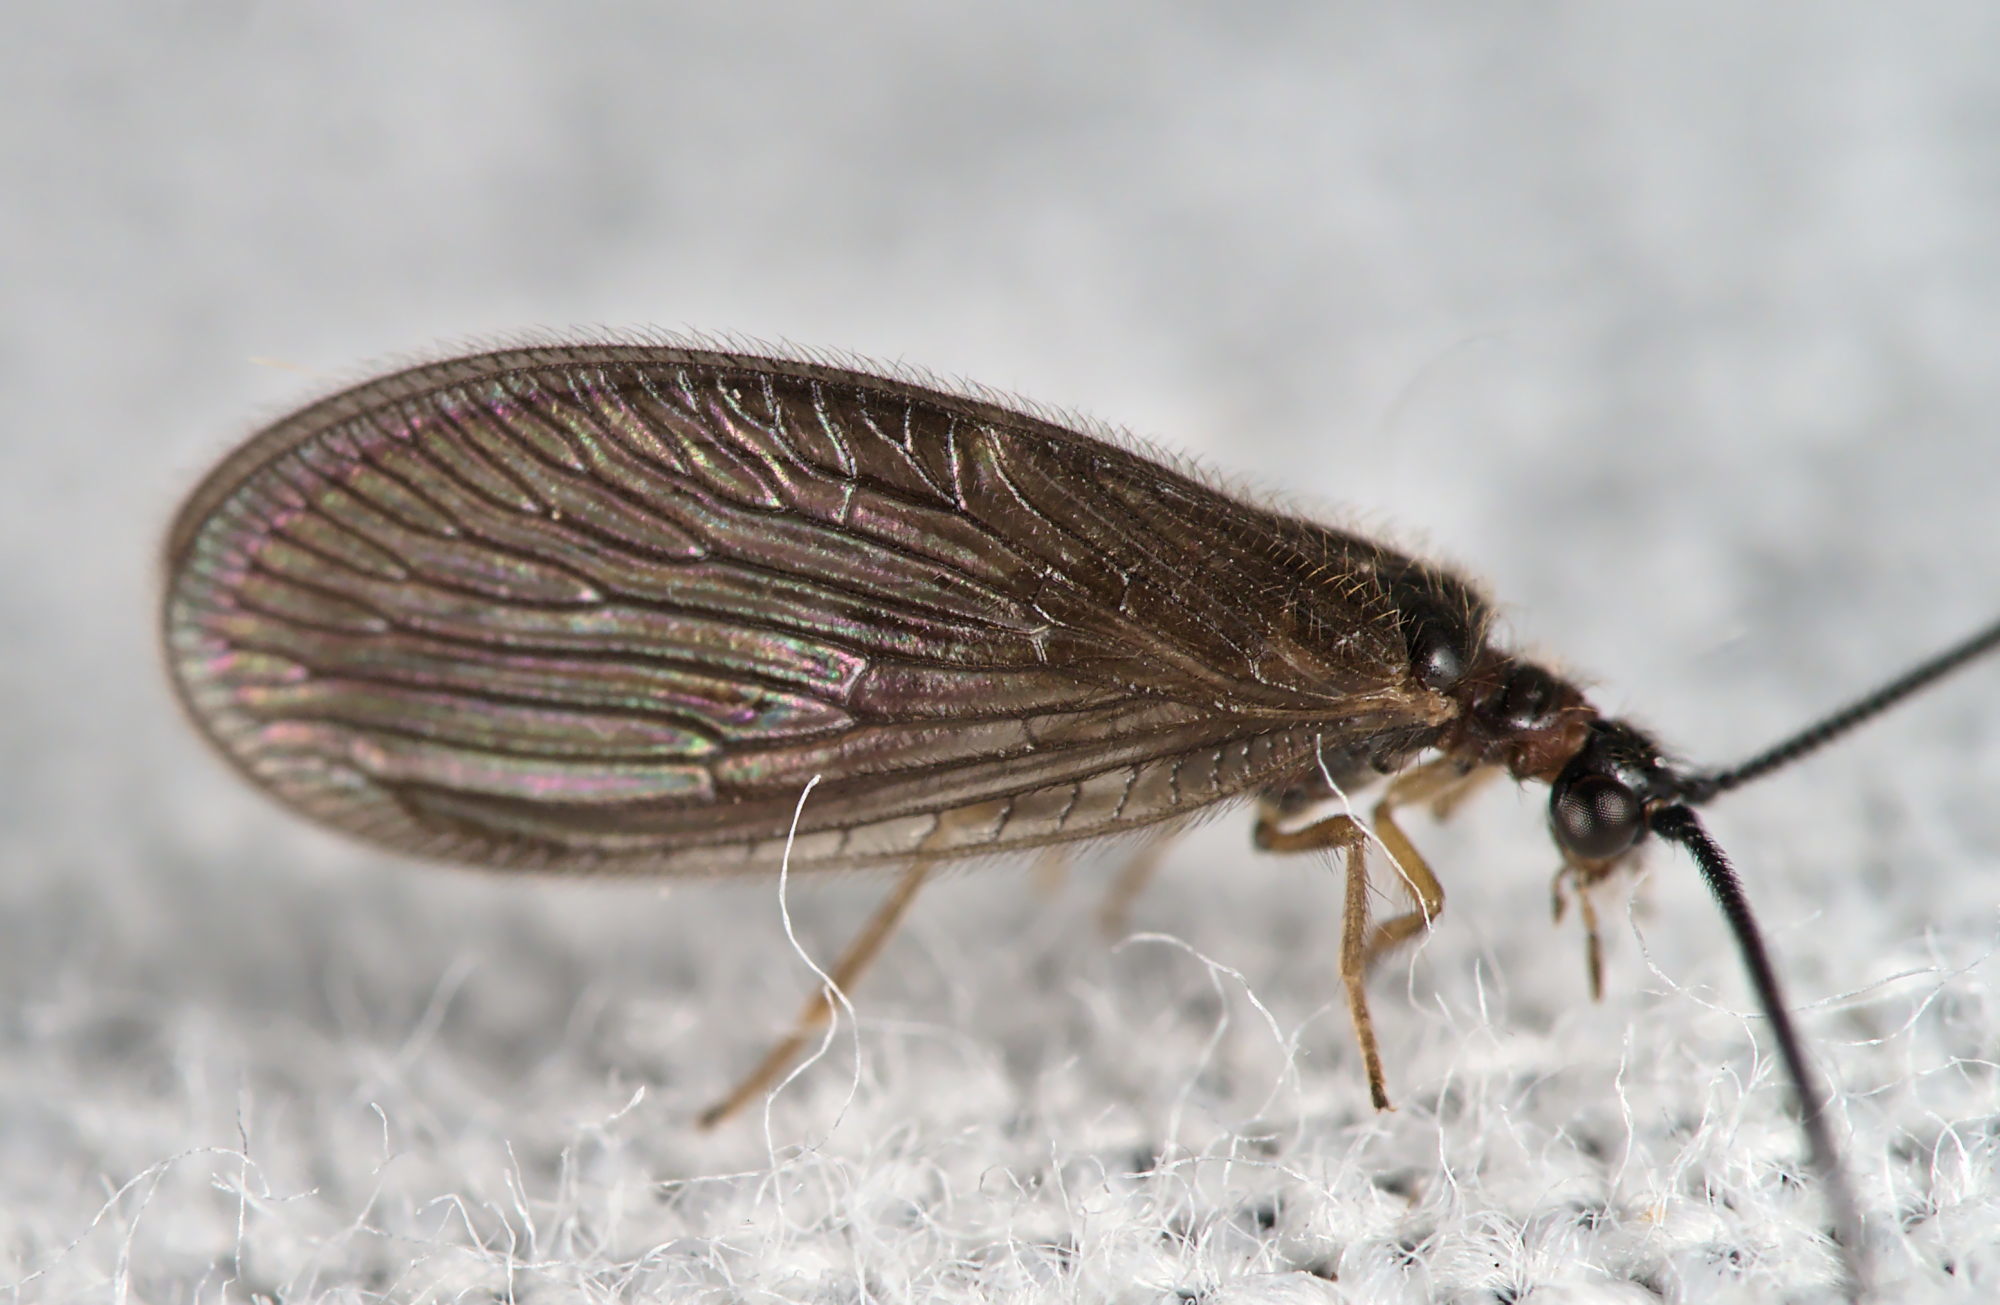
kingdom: Animalia
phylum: Arthropoda
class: Insecta
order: Neuroptera
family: Sisyridae
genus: Sisyra
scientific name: Sisyra nigra
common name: Black spongillafly
